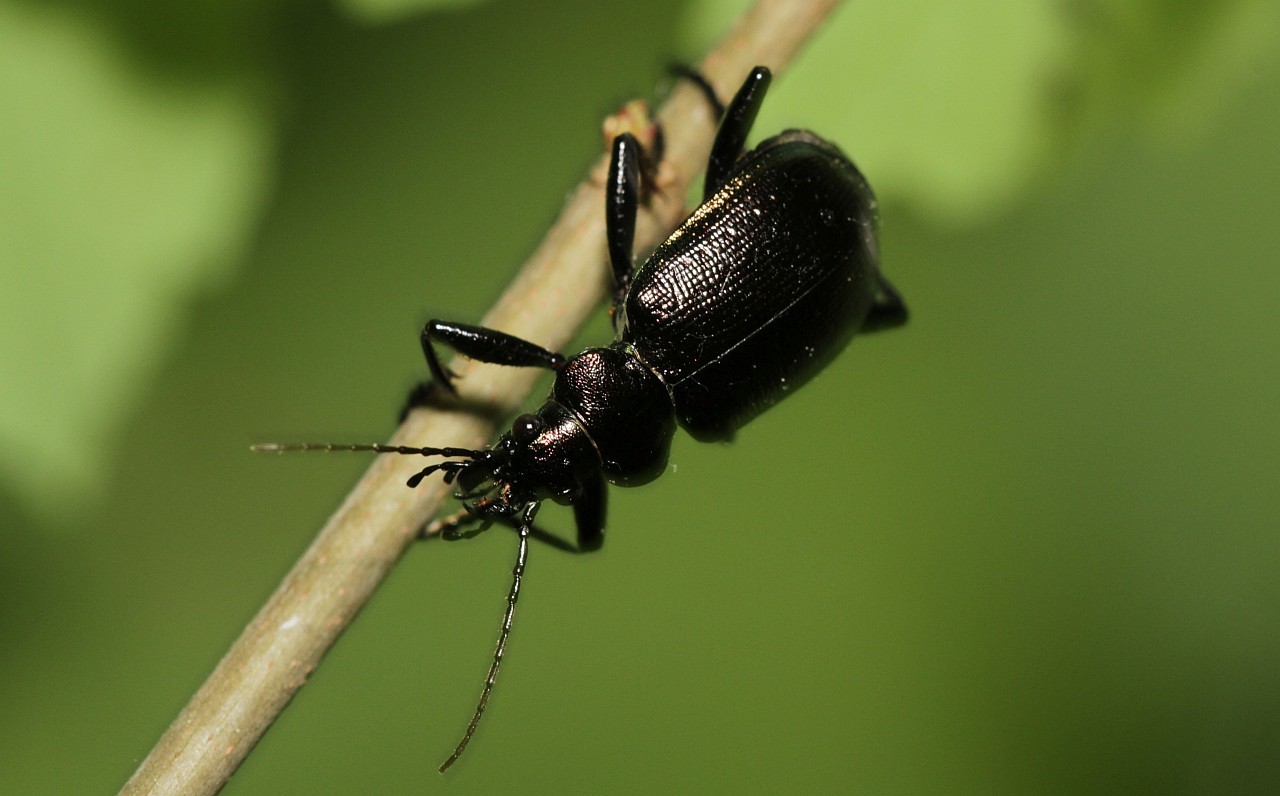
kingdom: Animalia
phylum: Arthropoda
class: Insecta
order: Coleoptera
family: Carabidae
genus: Calosoma
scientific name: Calosoma inquisitor
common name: Caterpillar-hunter
